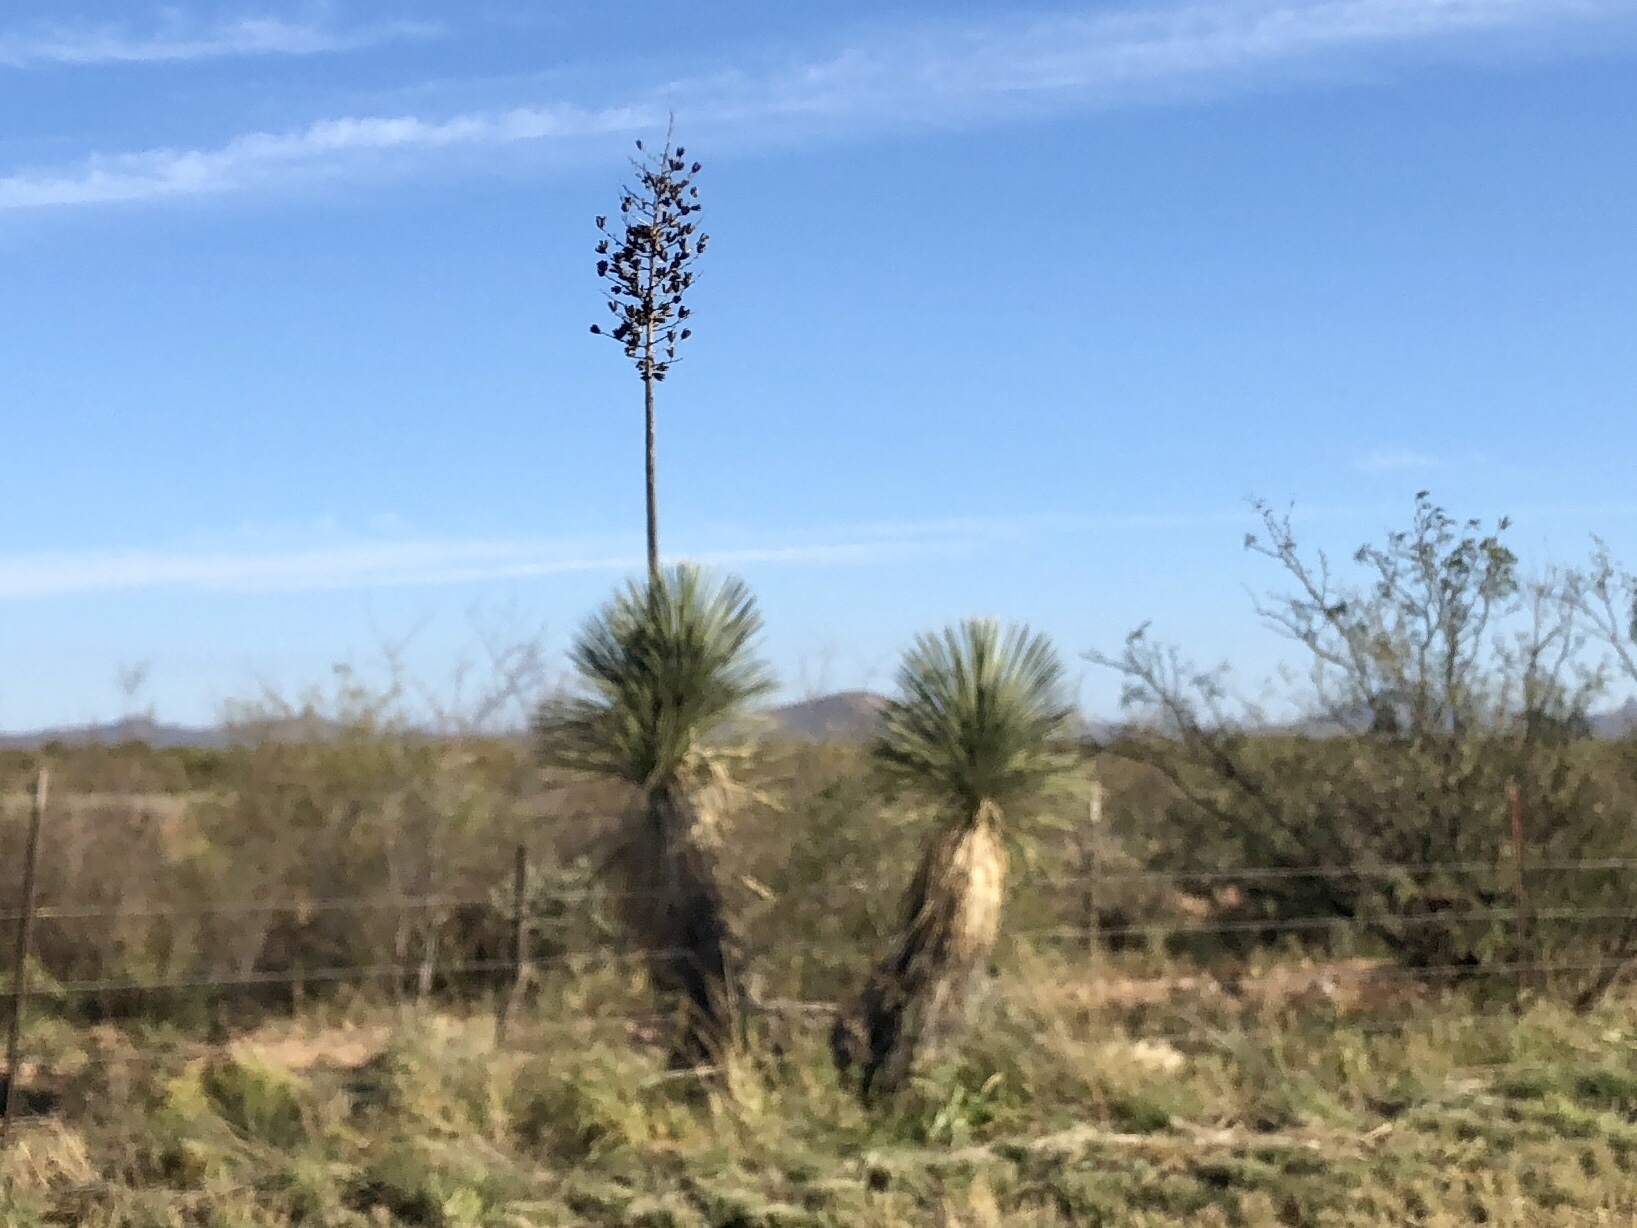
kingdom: Plantae
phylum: Tracheophyta
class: Liliopsida
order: Asparagales
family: Asparagaceae
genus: Yucca
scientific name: Yucca elata
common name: Palmella
